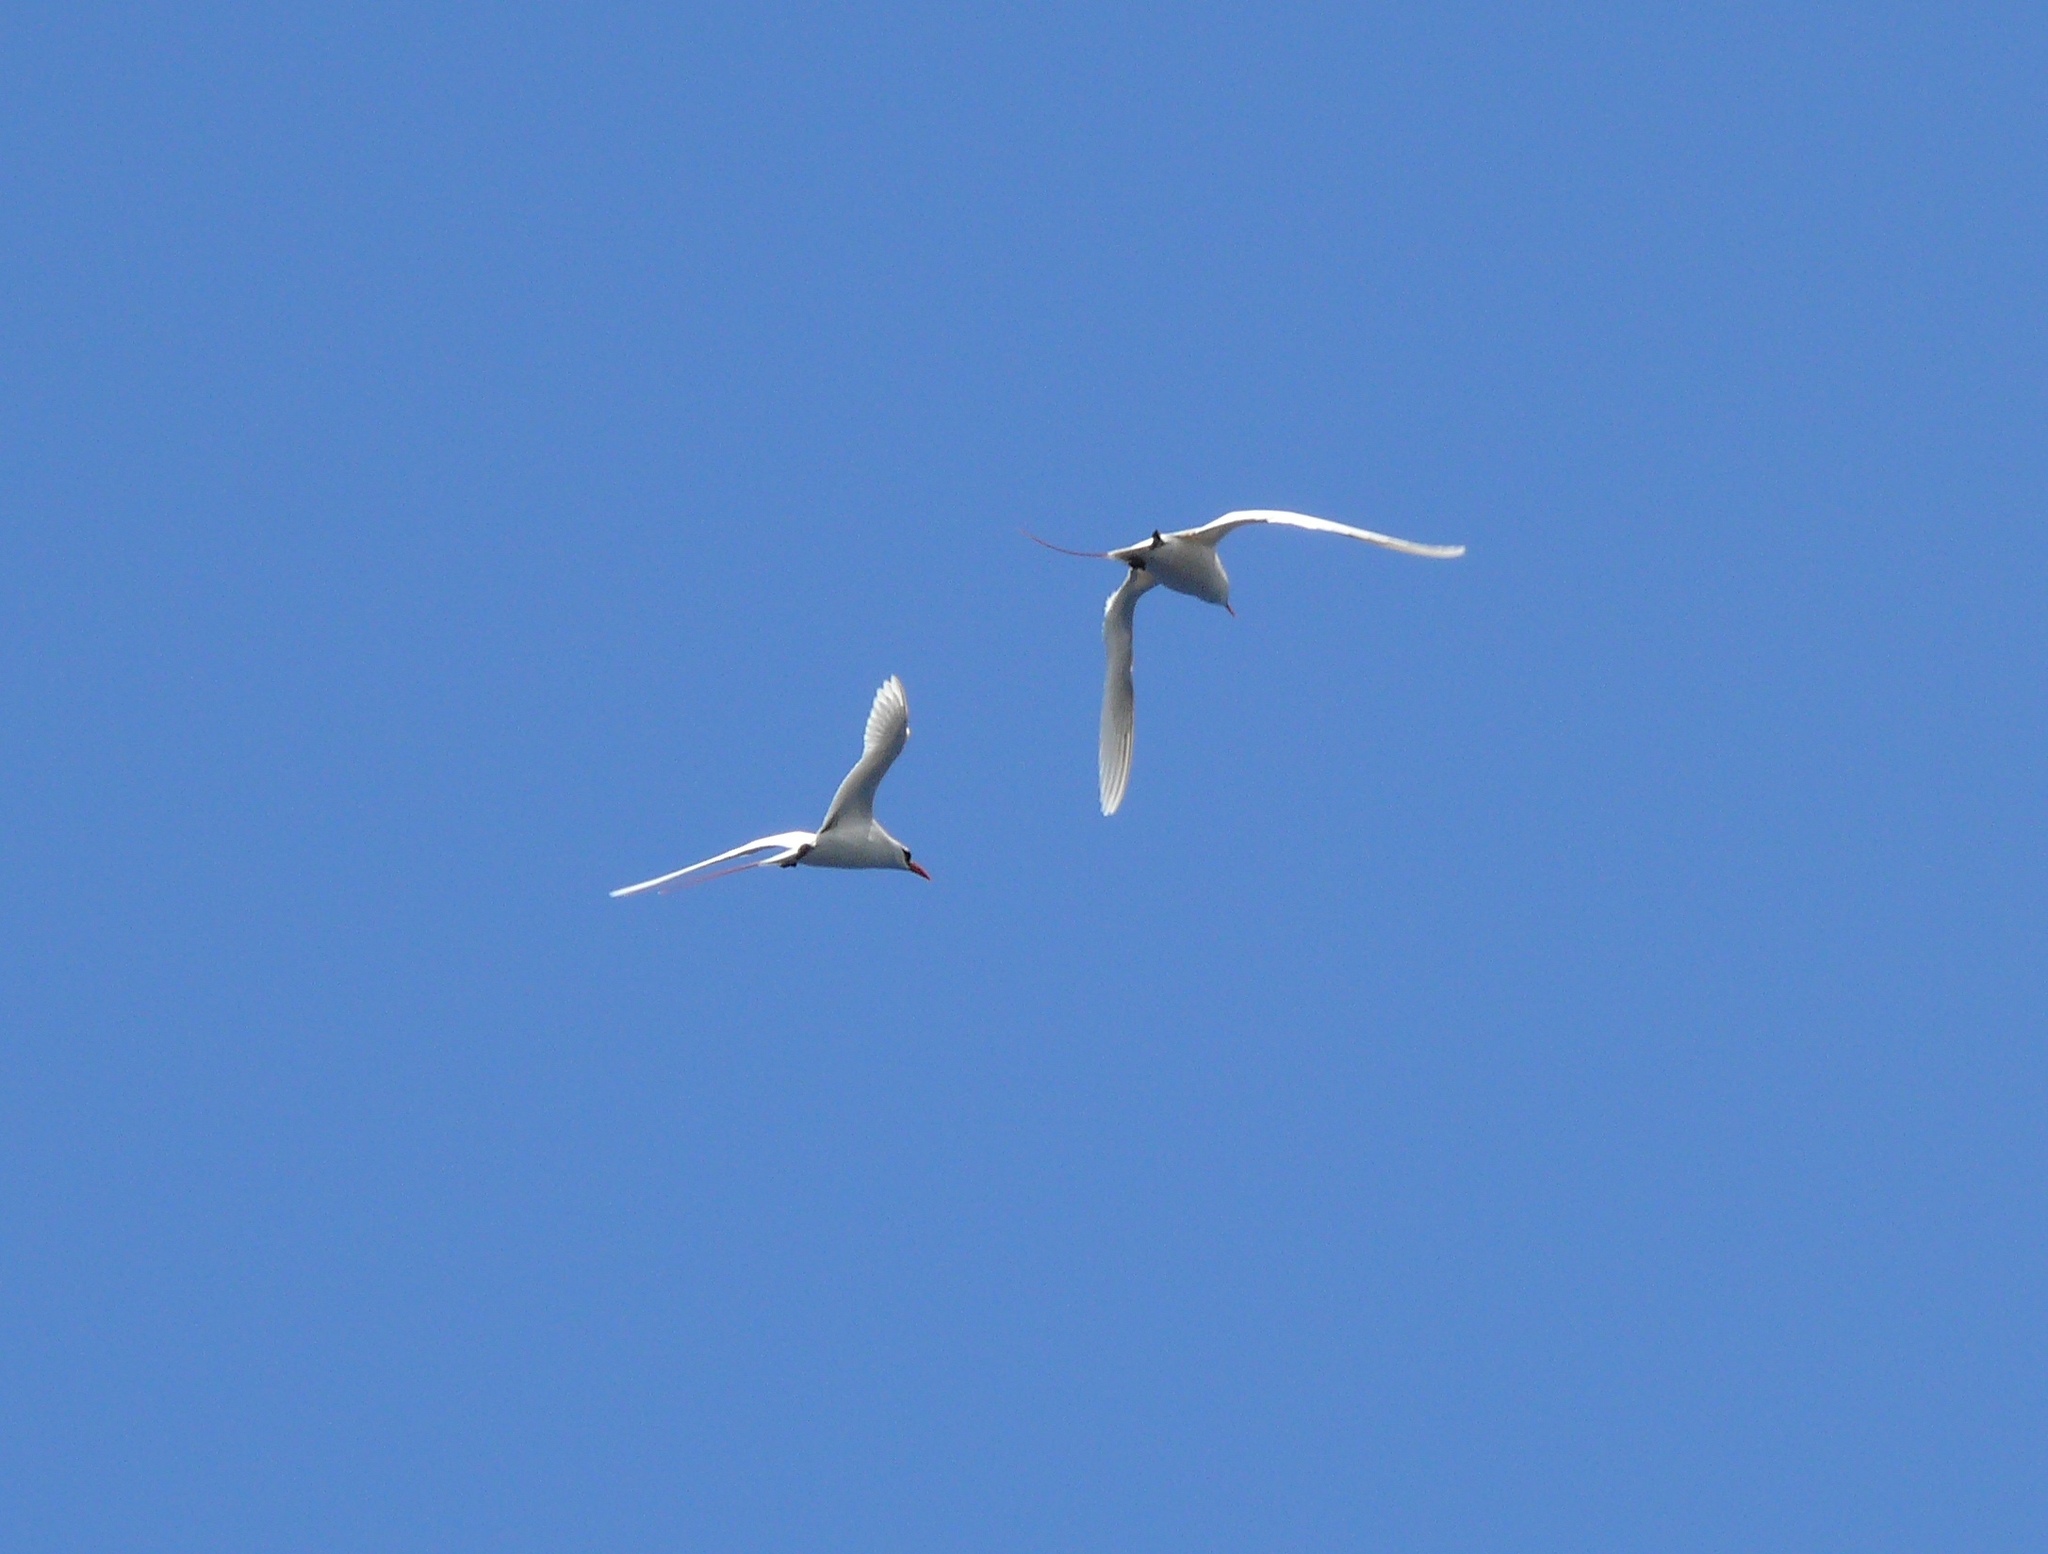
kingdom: Animalia
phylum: Chordata
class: Aves
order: Phaethontiformes
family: Phaethontidae
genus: Phaethon
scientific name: Phaethon rubricauda
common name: Red-tailed tropicbird
